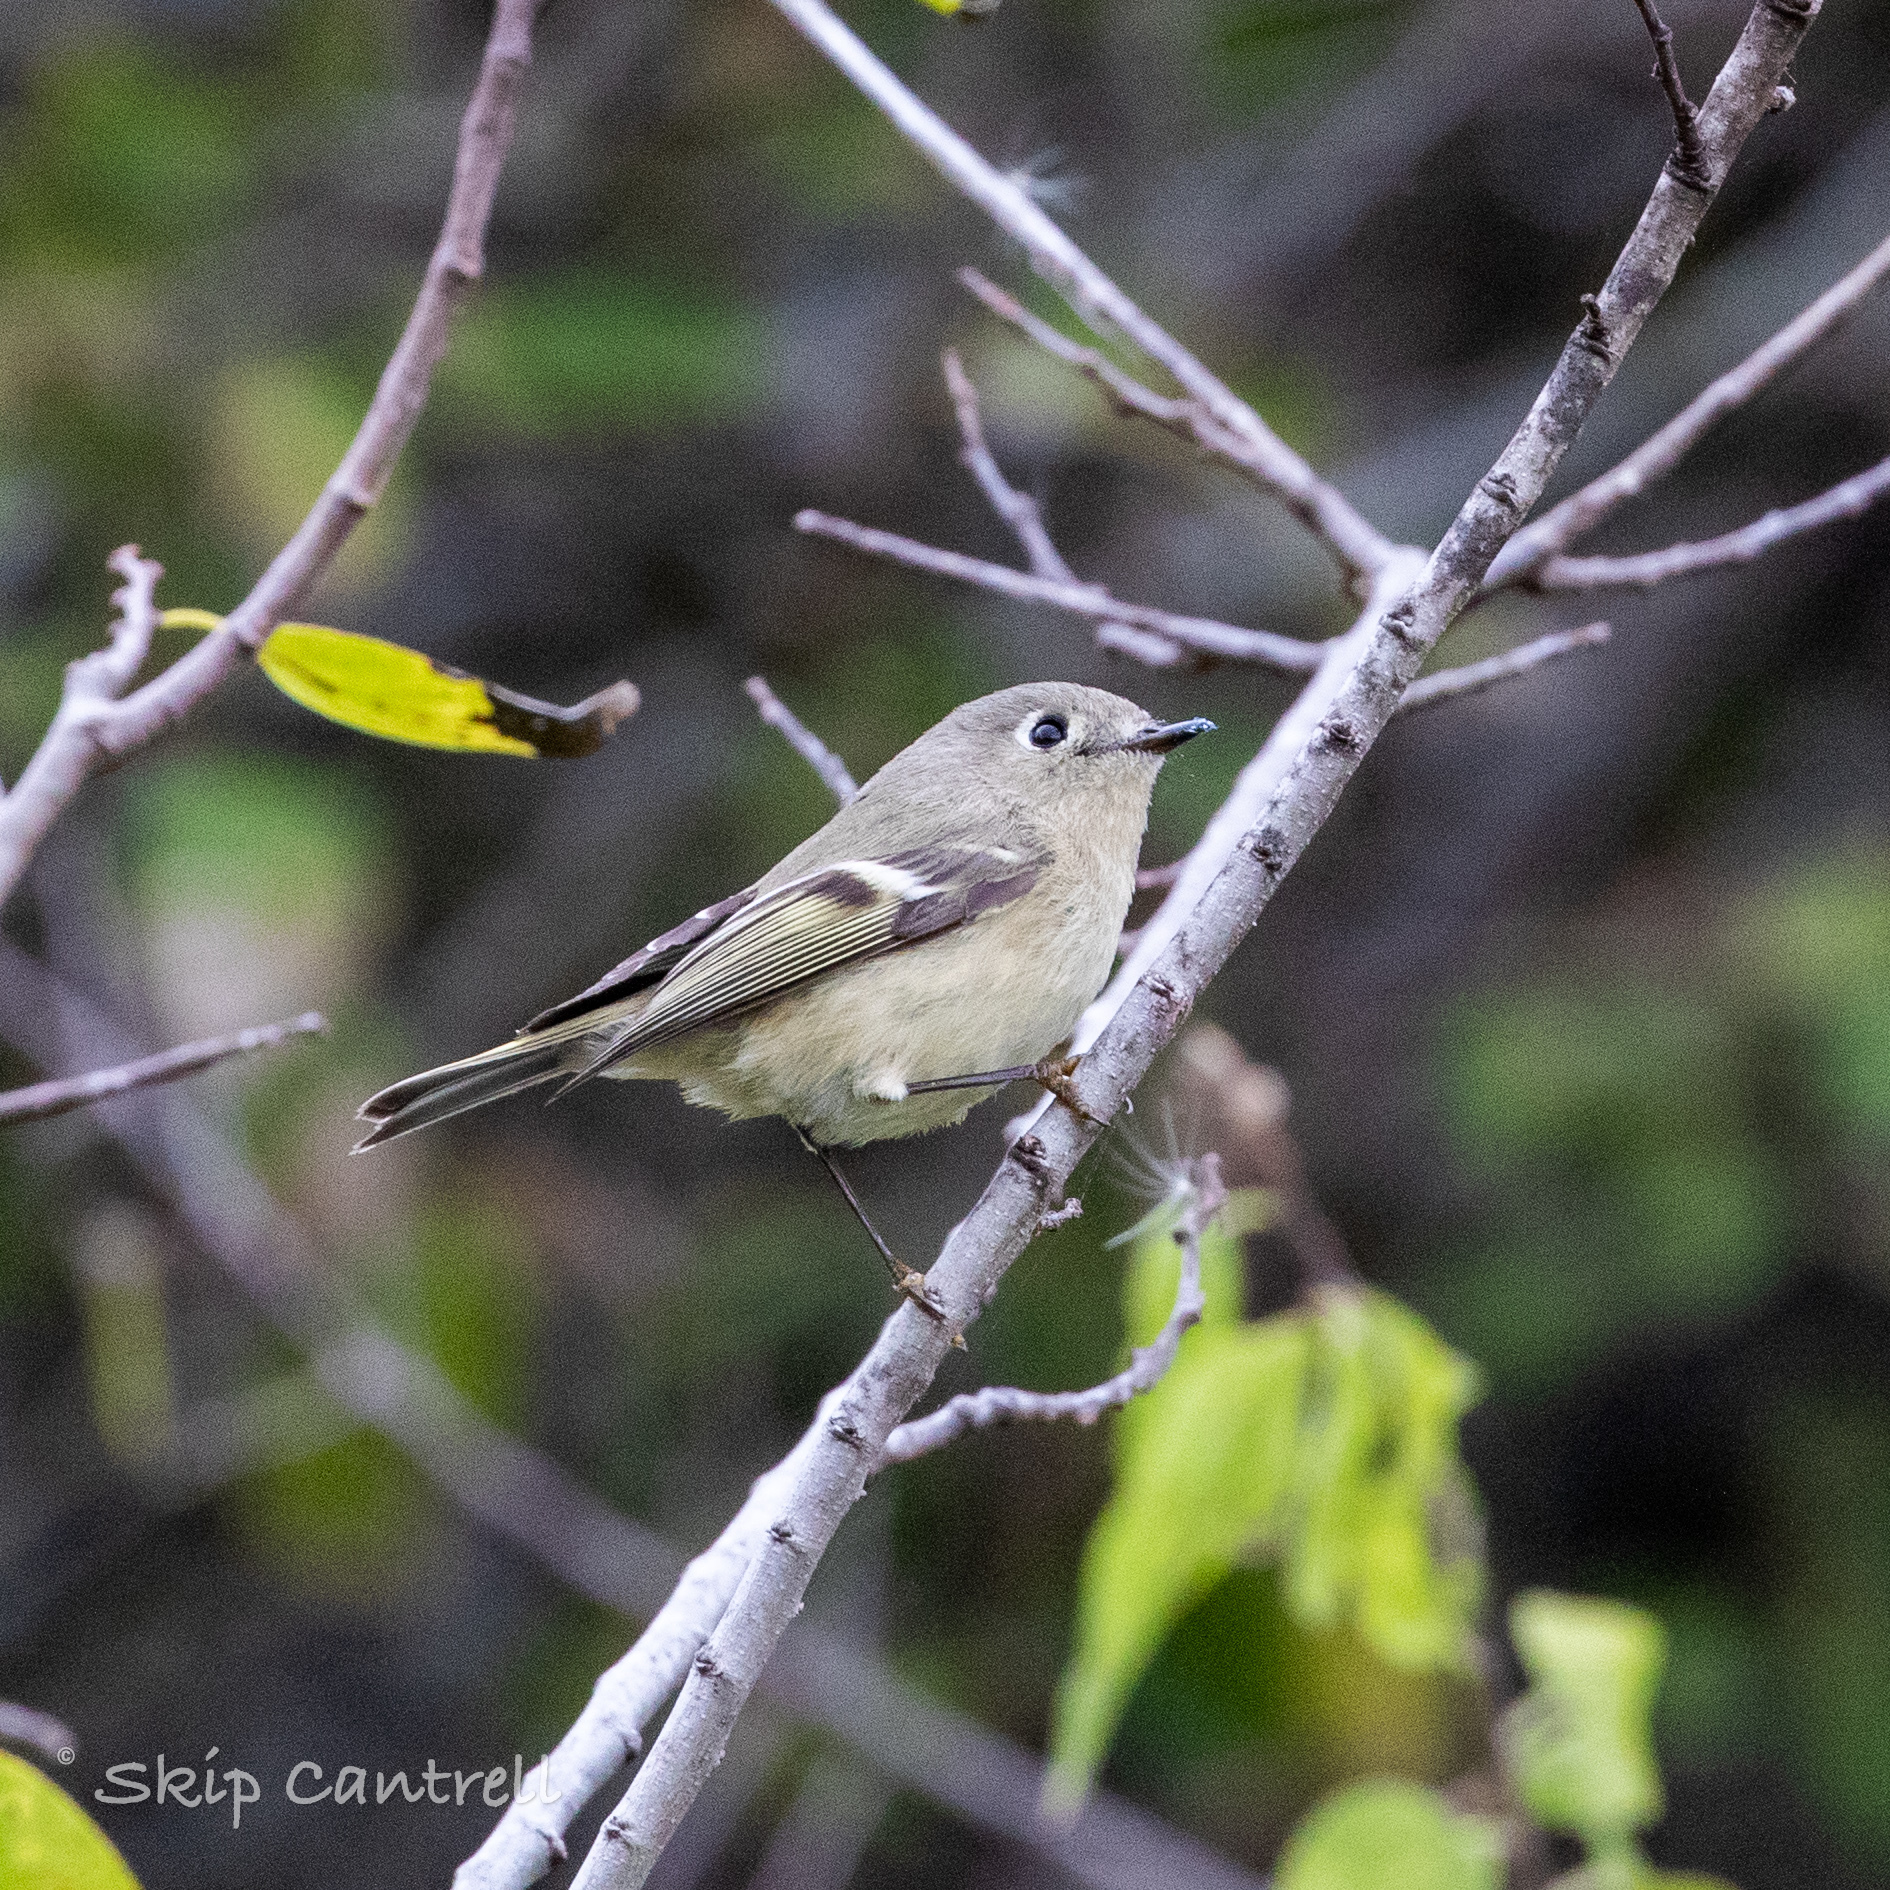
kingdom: Animalia
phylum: Chordata
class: Aves
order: Passeriformes
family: Regulidae
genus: Regulus
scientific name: Regulus calendula
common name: Ruby-crowned kinglet
